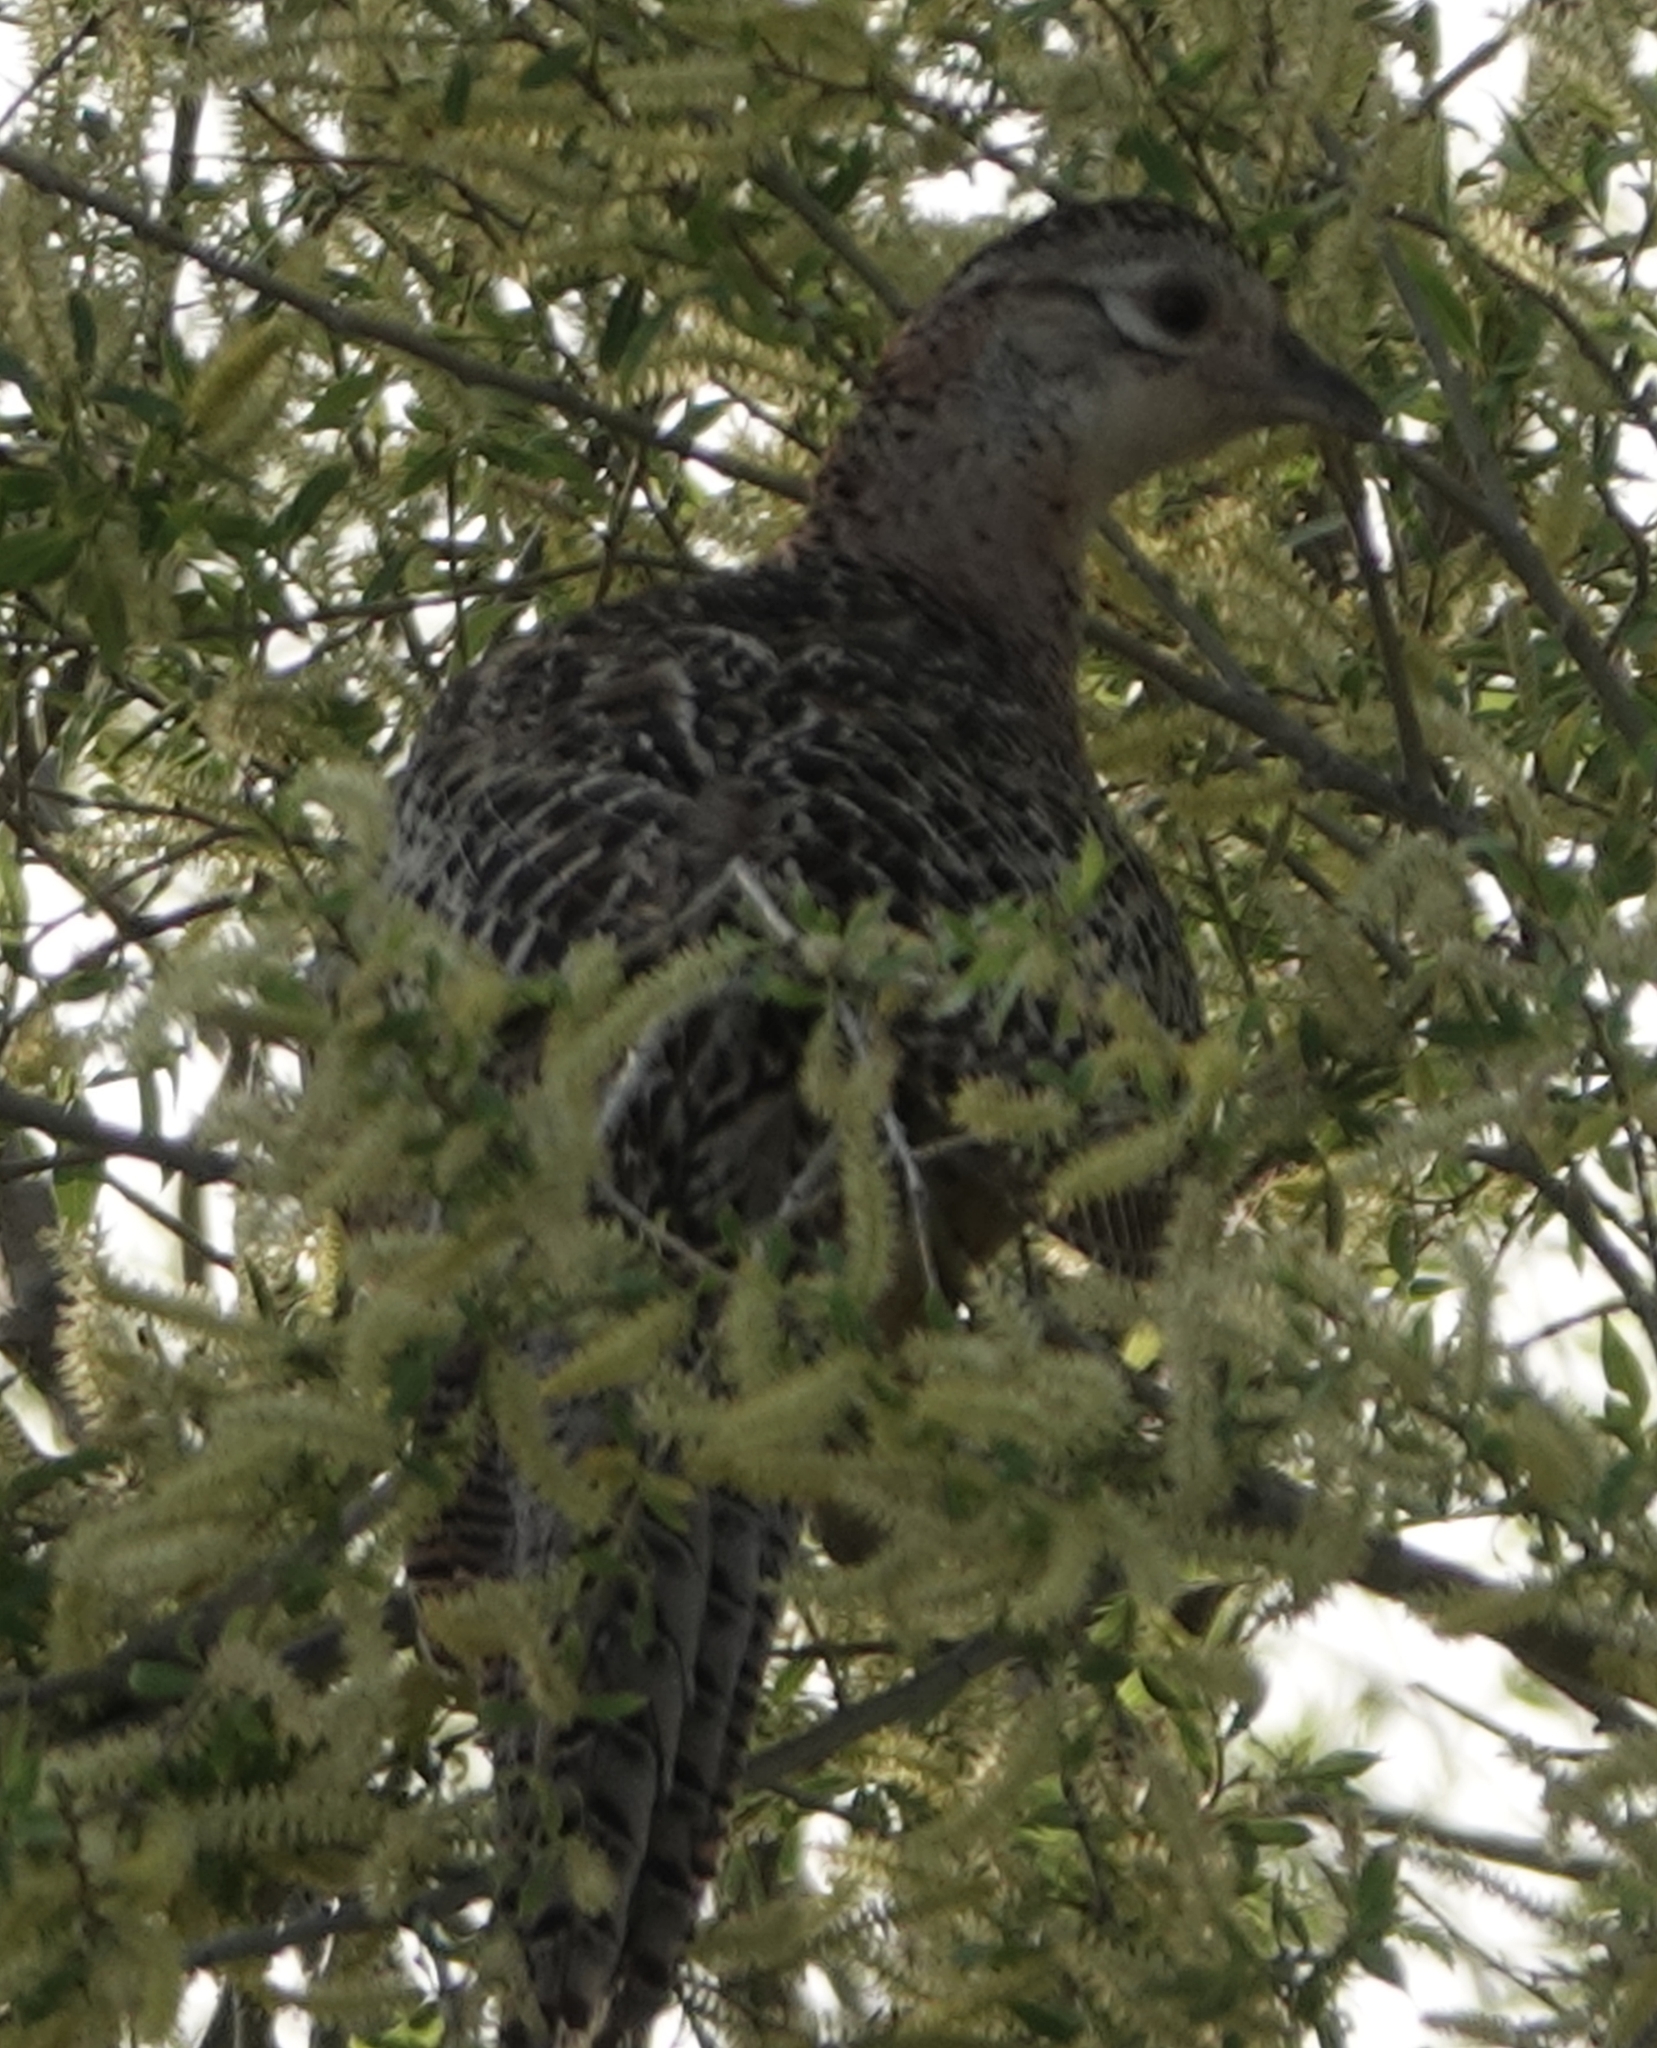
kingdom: Animalia
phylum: Chordata
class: Aves
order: Galliformes
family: Phasianidae
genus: Phasianus
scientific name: Phasianus colchicus
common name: Common pheasant
